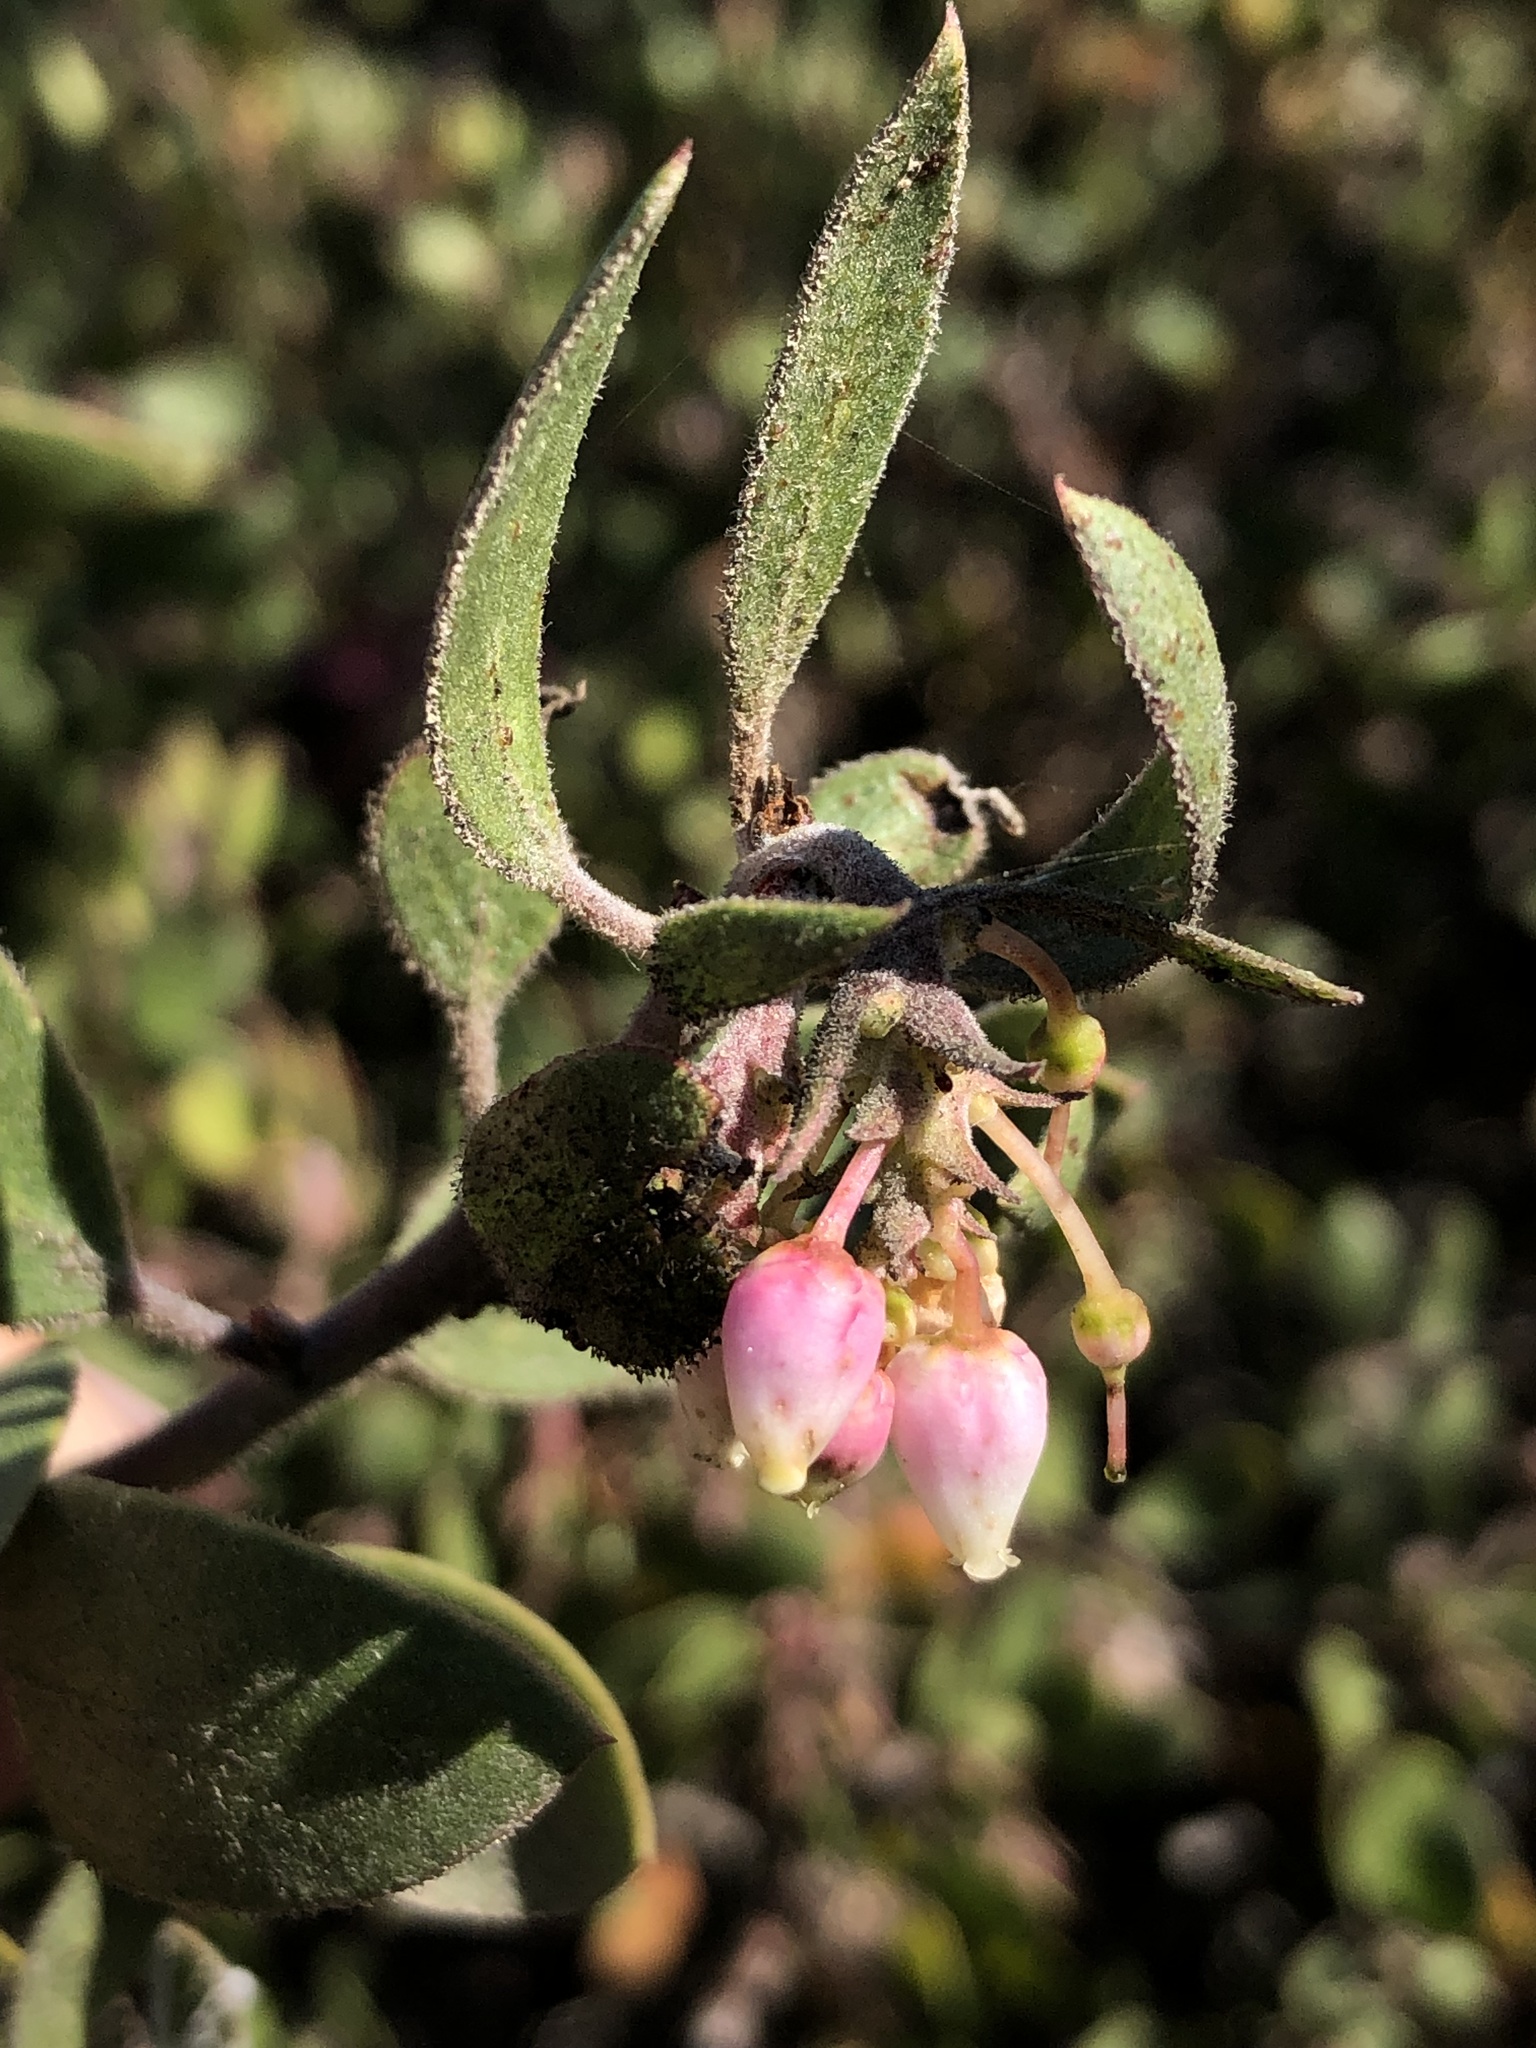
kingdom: Plantae
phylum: Tracheophyta
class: Magnoliopsida
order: Ericales
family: Ericaceae
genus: Arctostaphylos
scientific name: Arctostaphylos rudis
